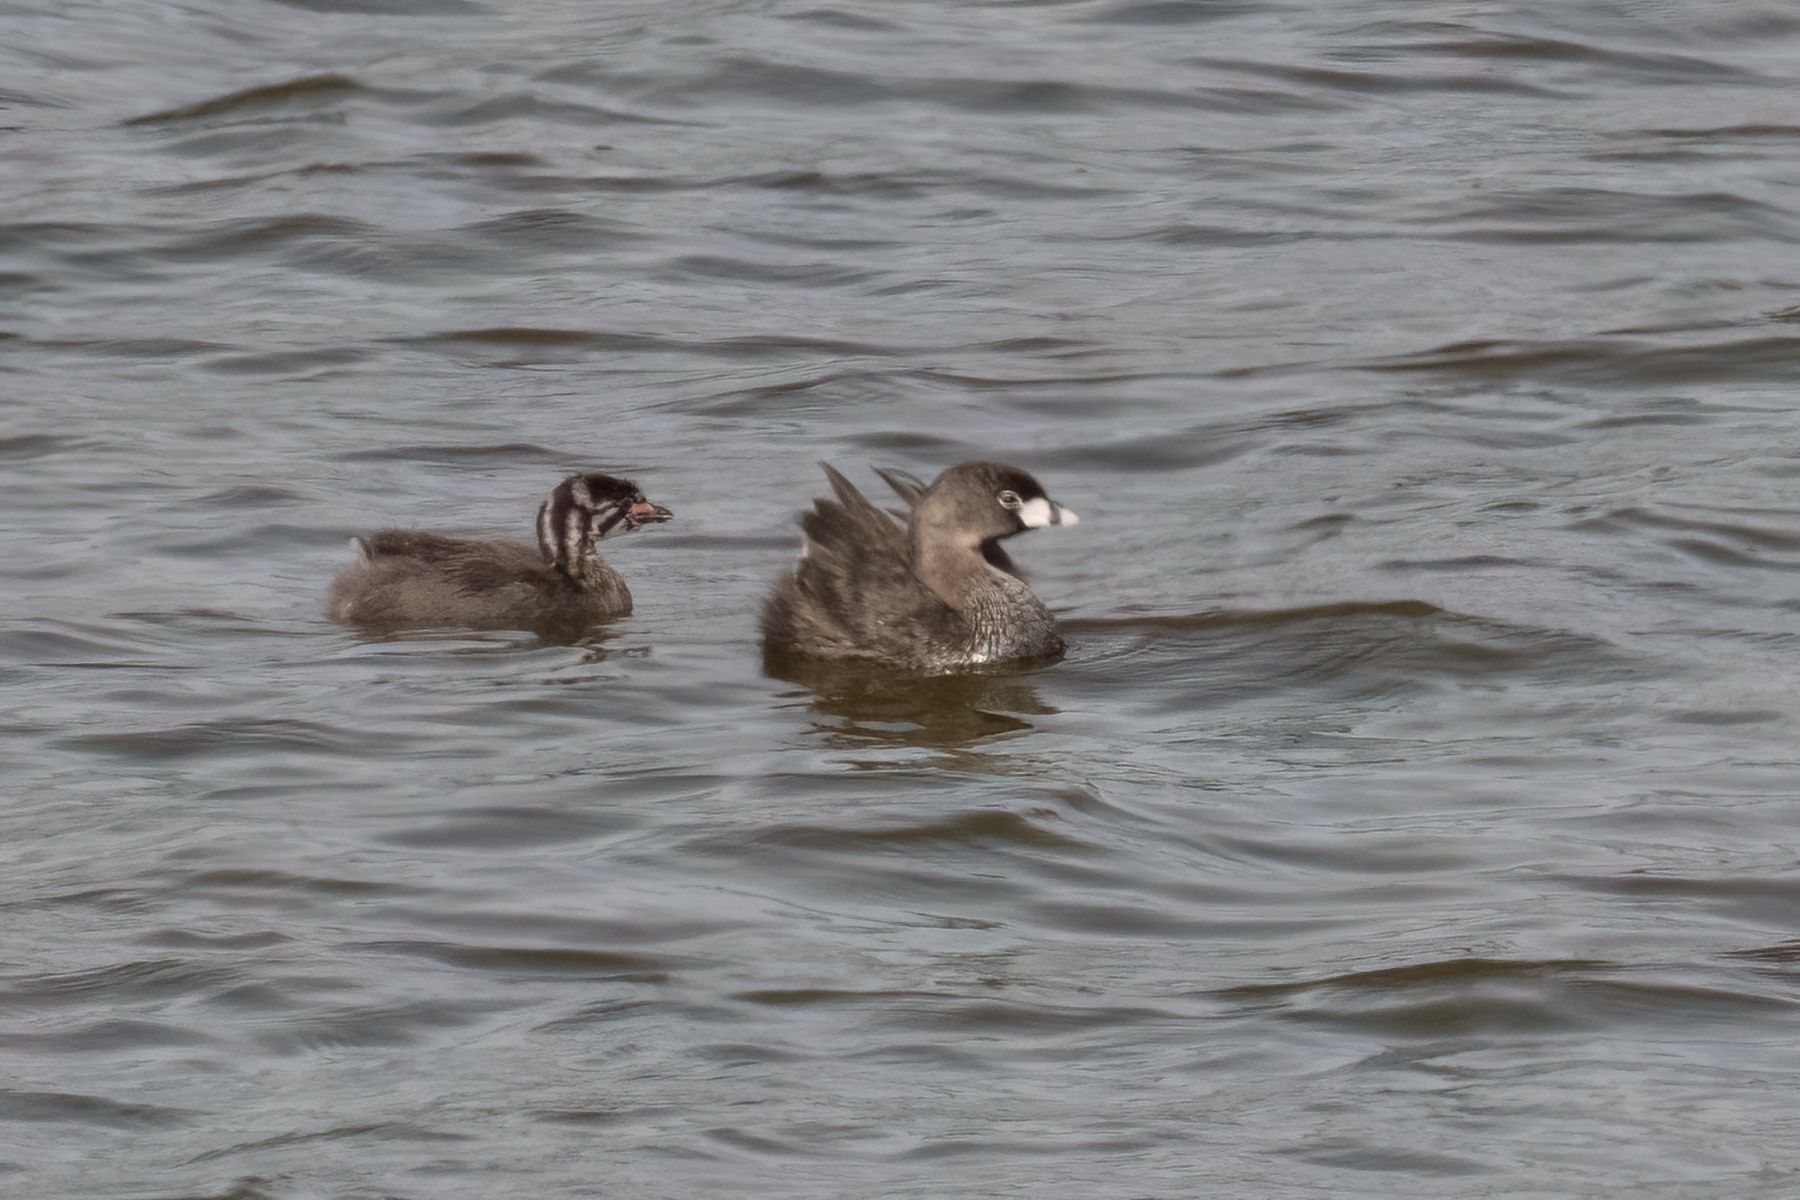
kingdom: Animalia
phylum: Chordata
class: Aves
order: Podicipediformes
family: Podicipedidae
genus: Podilymbus
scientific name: Podilymbus podiceps
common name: Pied-billed grebe
